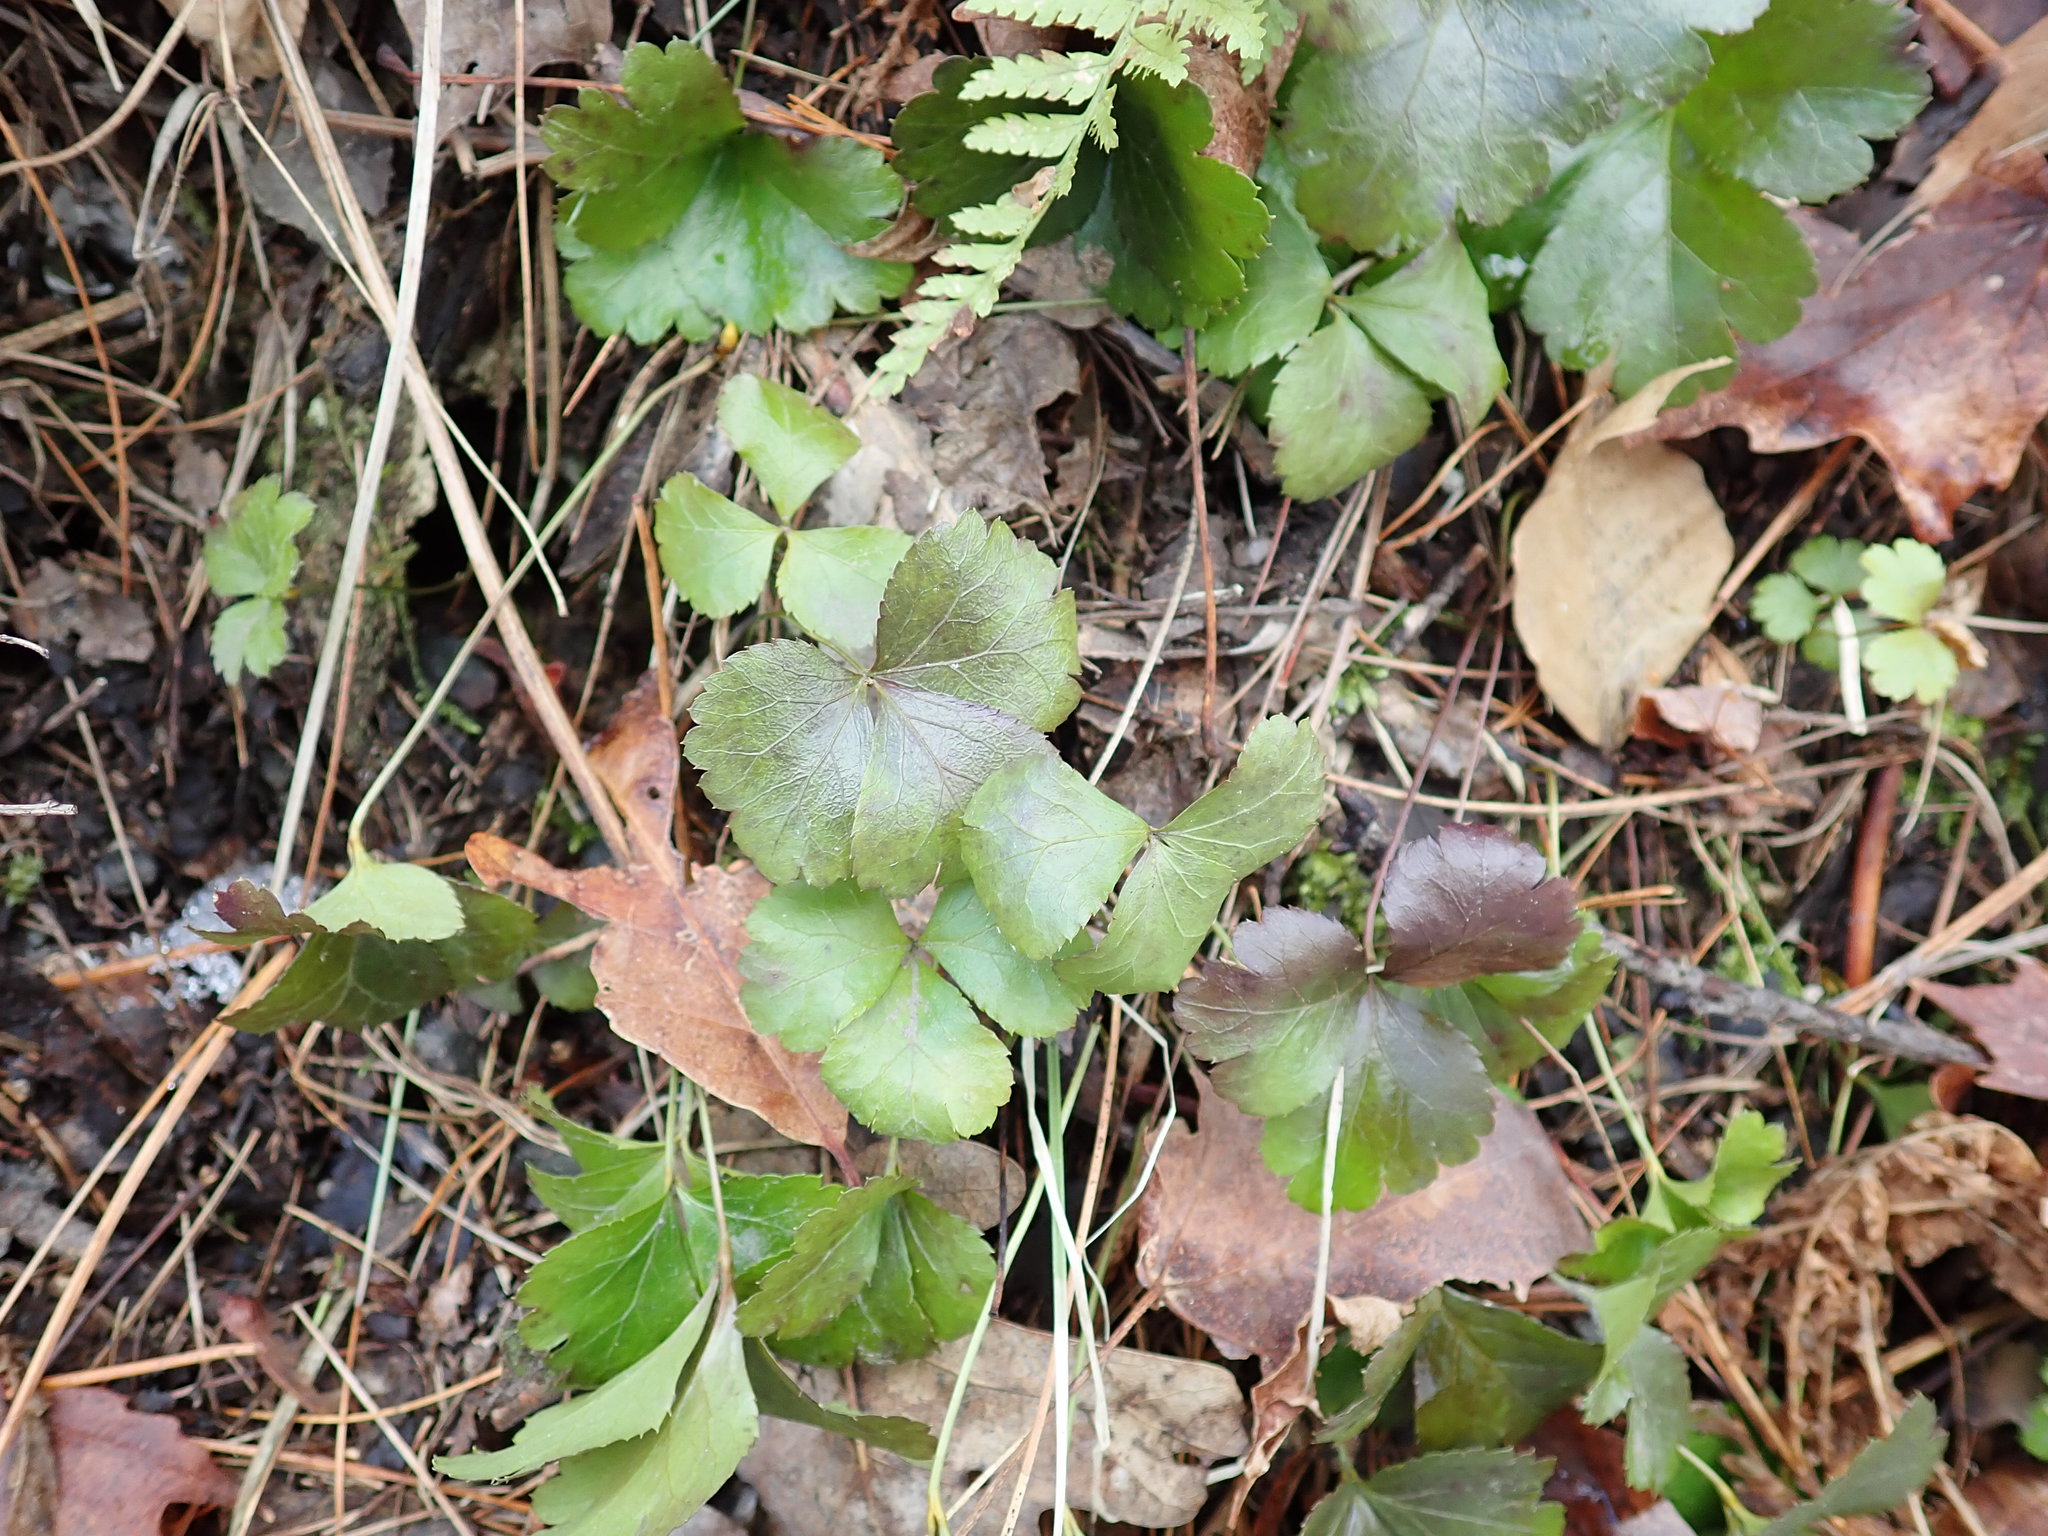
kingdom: Plantae
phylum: Tracheophyta
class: Magnoliopsida
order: Ranunculales
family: Ranunculaceae
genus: Coptis
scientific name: Coptis trifolia
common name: Canker-root
